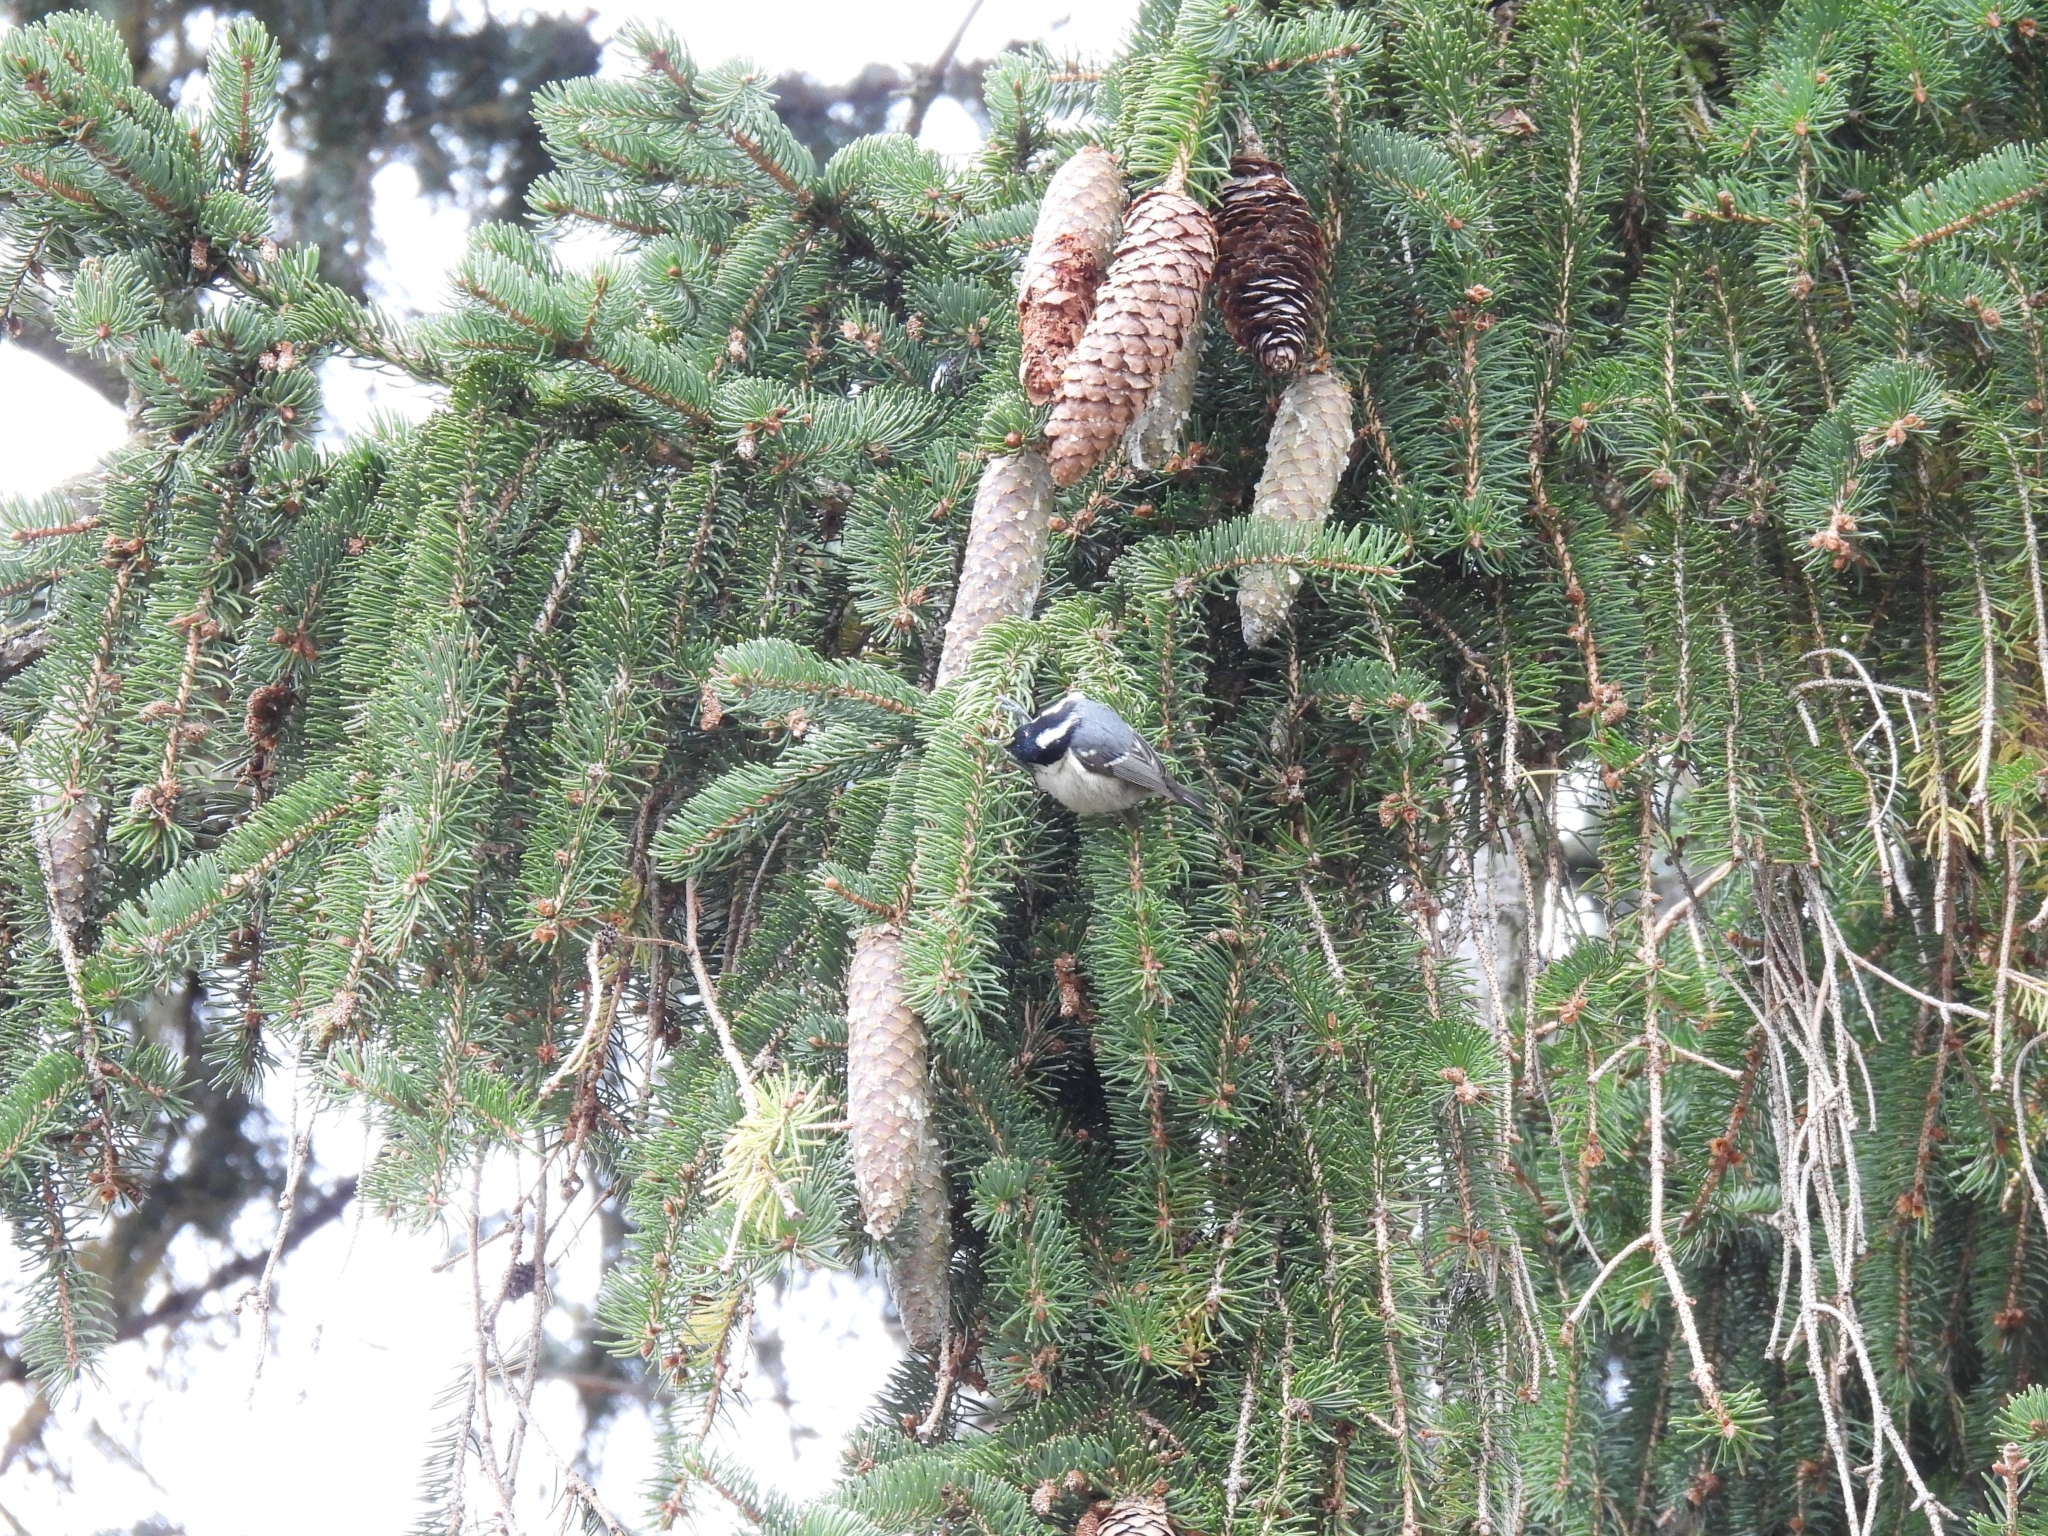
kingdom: Animalia
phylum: Chordata
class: Aves
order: Passeriformes
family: Paridae
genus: Periparus
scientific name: Periparus ater
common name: Coal tit
